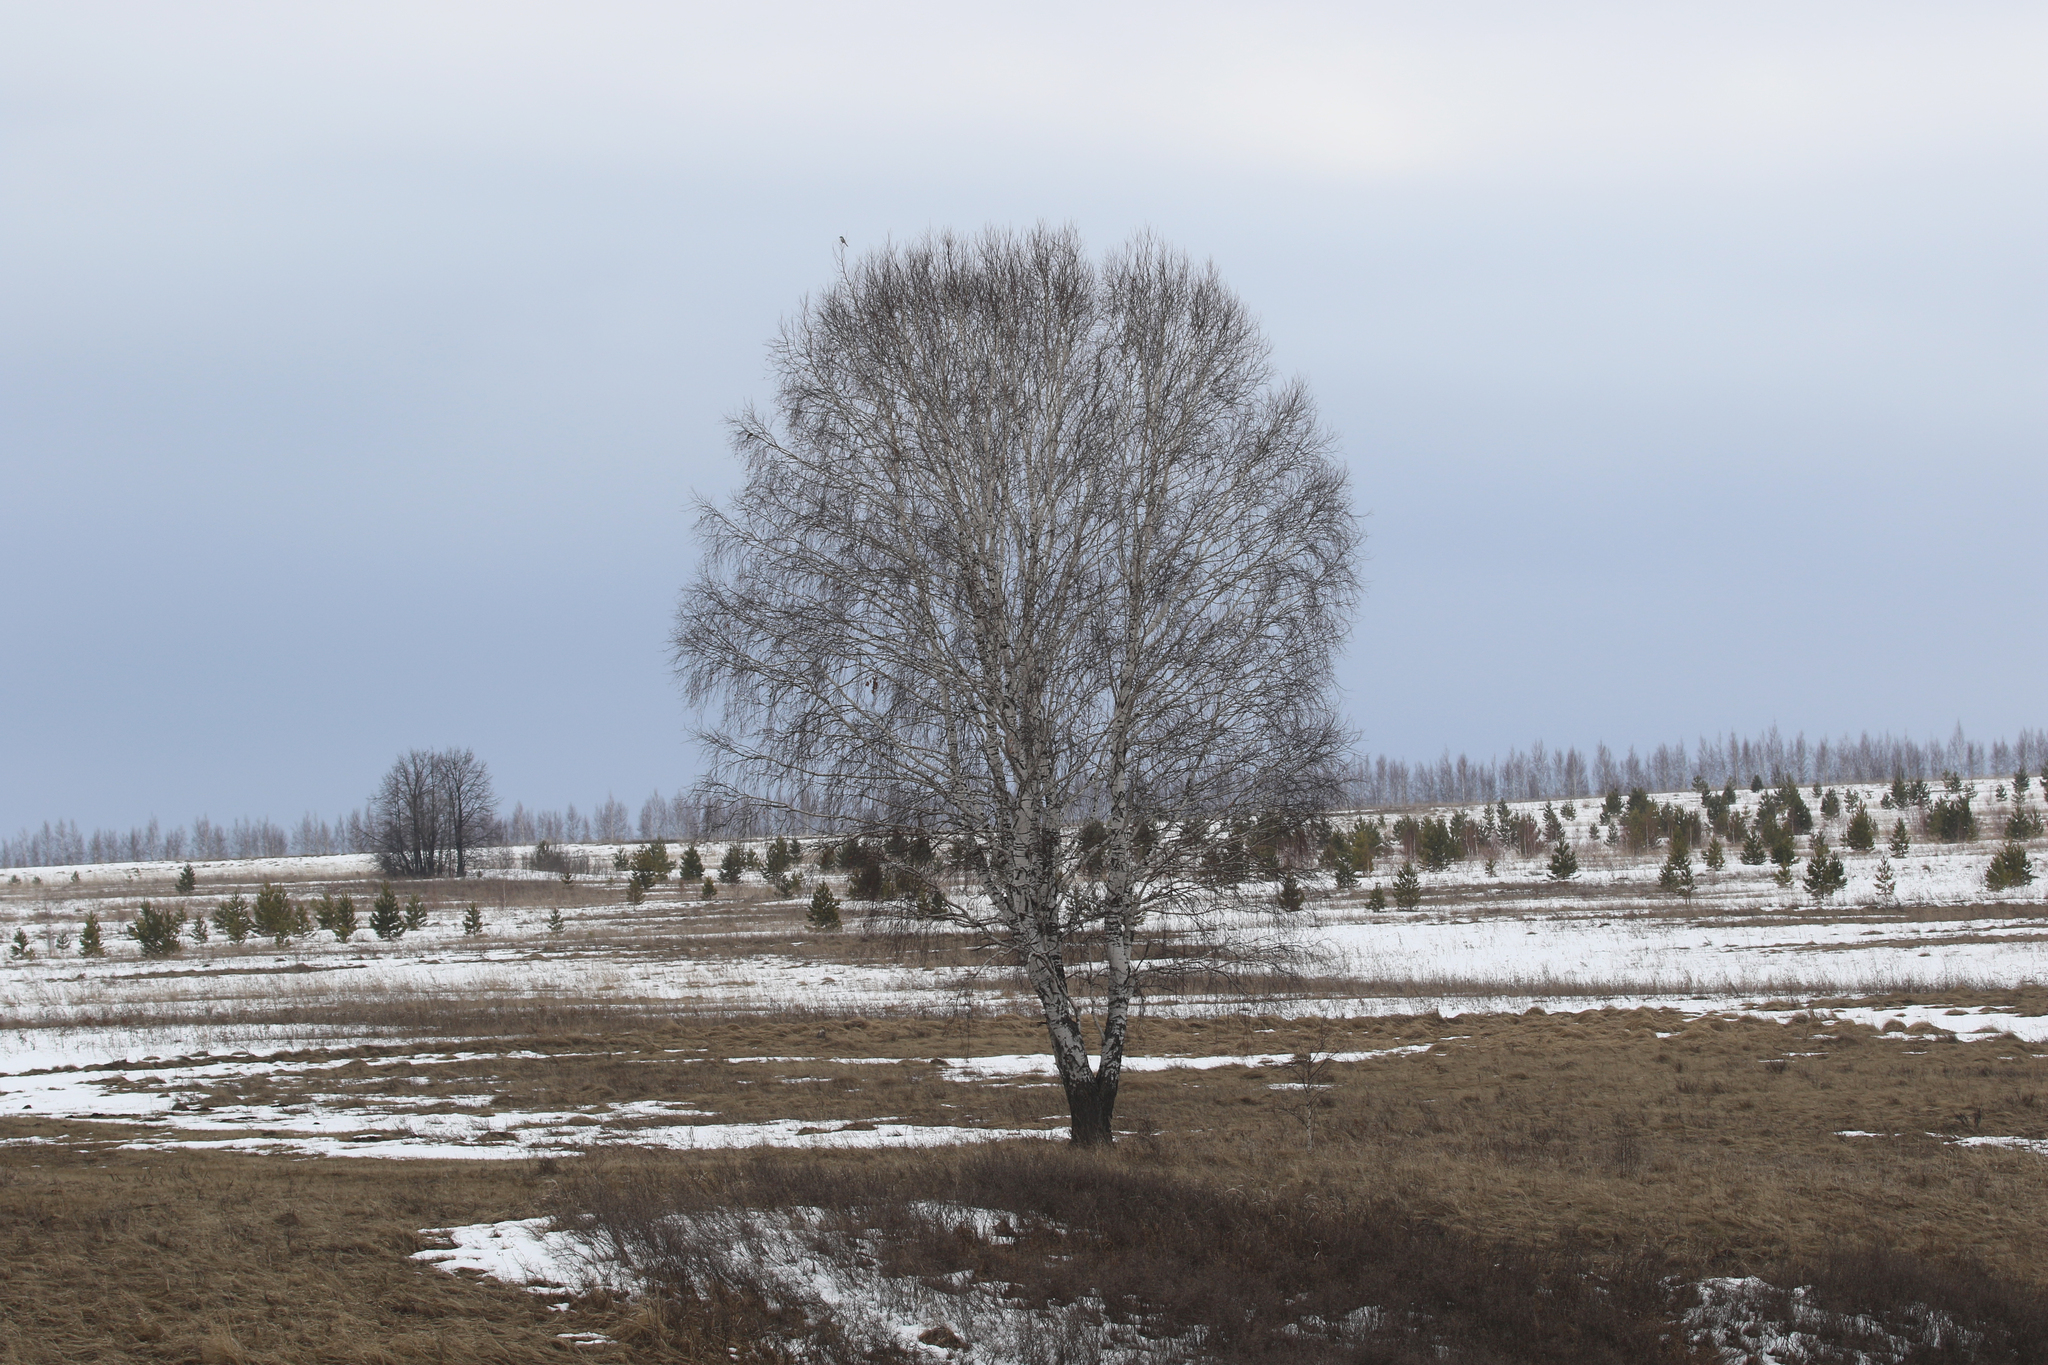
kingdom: Animalia
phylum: Chordata
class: Aves
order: Passeriformes
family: Laniidae
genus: Lanius
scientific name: Lanius excubitor
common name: Great grey shrike
